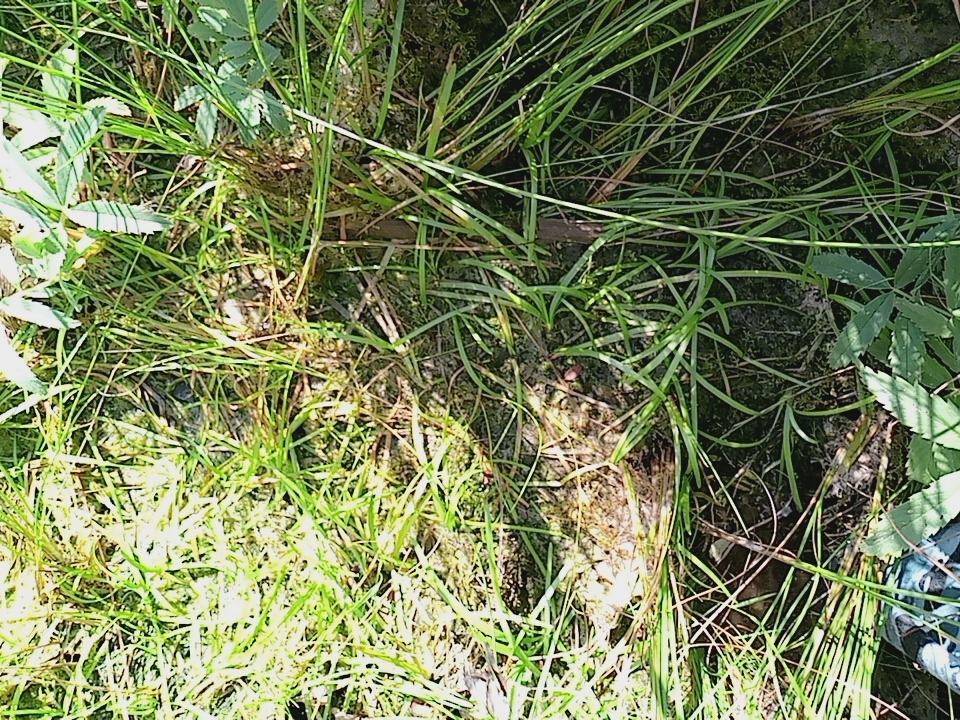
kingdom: Plantae
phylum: Tracheophyta
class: Liliopsida
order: Poales
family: Typhaceae
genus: Sparganium
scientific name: Sparganium natans
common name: Least bur-reed
